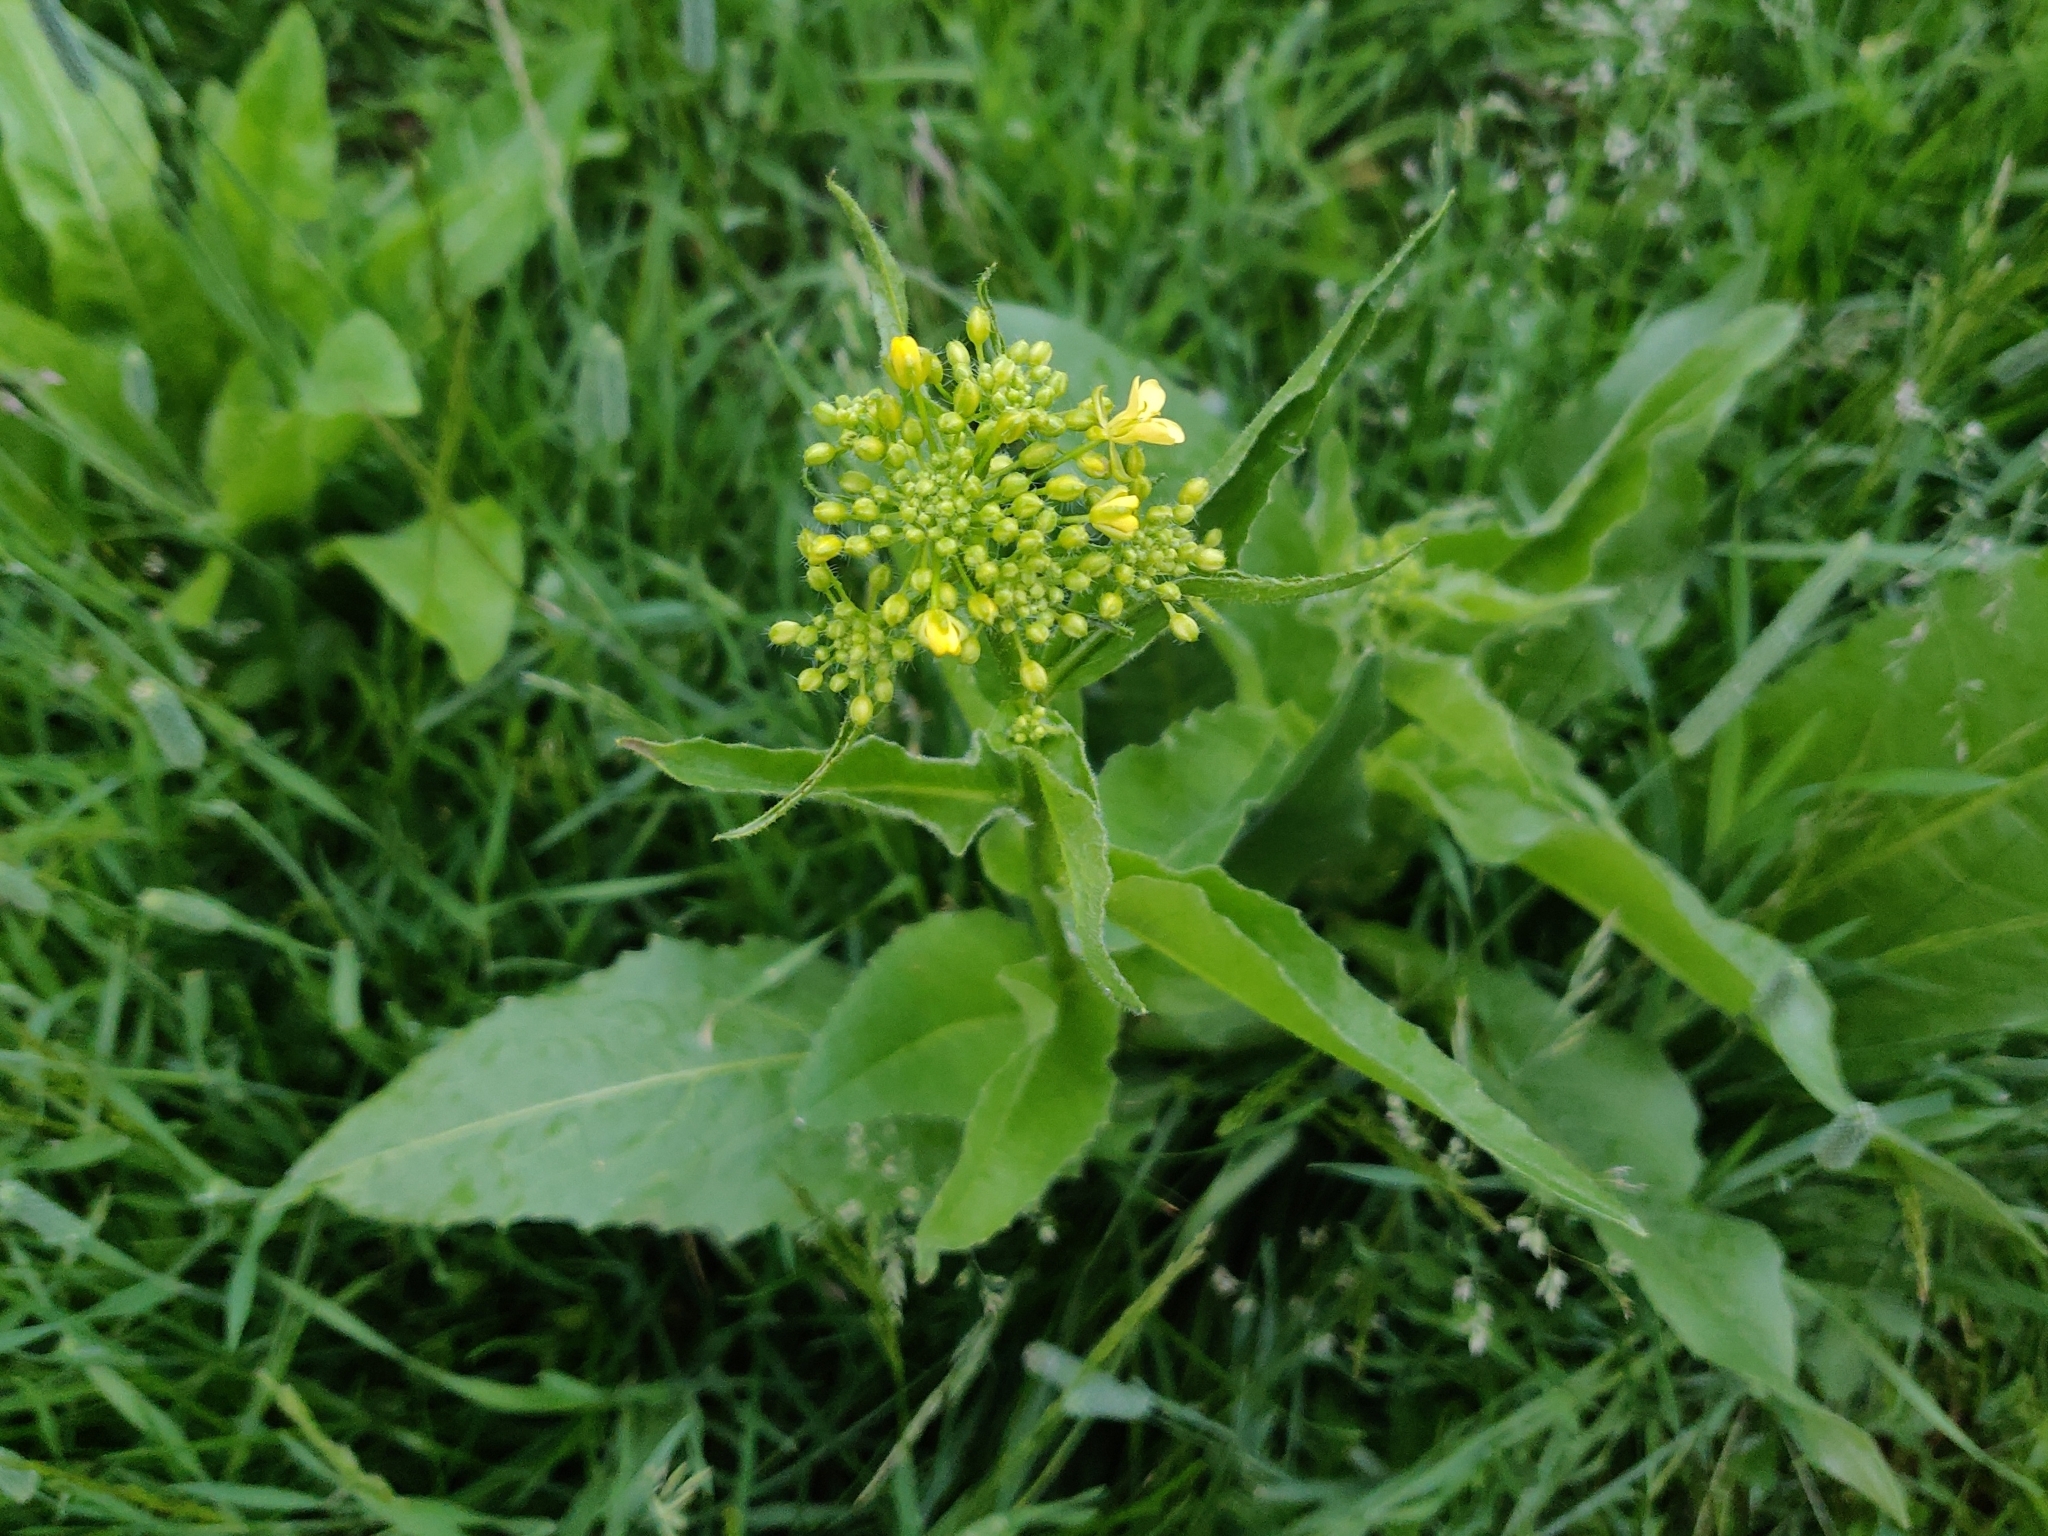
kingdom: Plantae
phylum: Tracheophyta
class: Magnoliopsida
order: Brassicales
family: Brassicaceae
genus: Bunias
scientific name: Bunias orientalis
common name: Warty-cabbage
